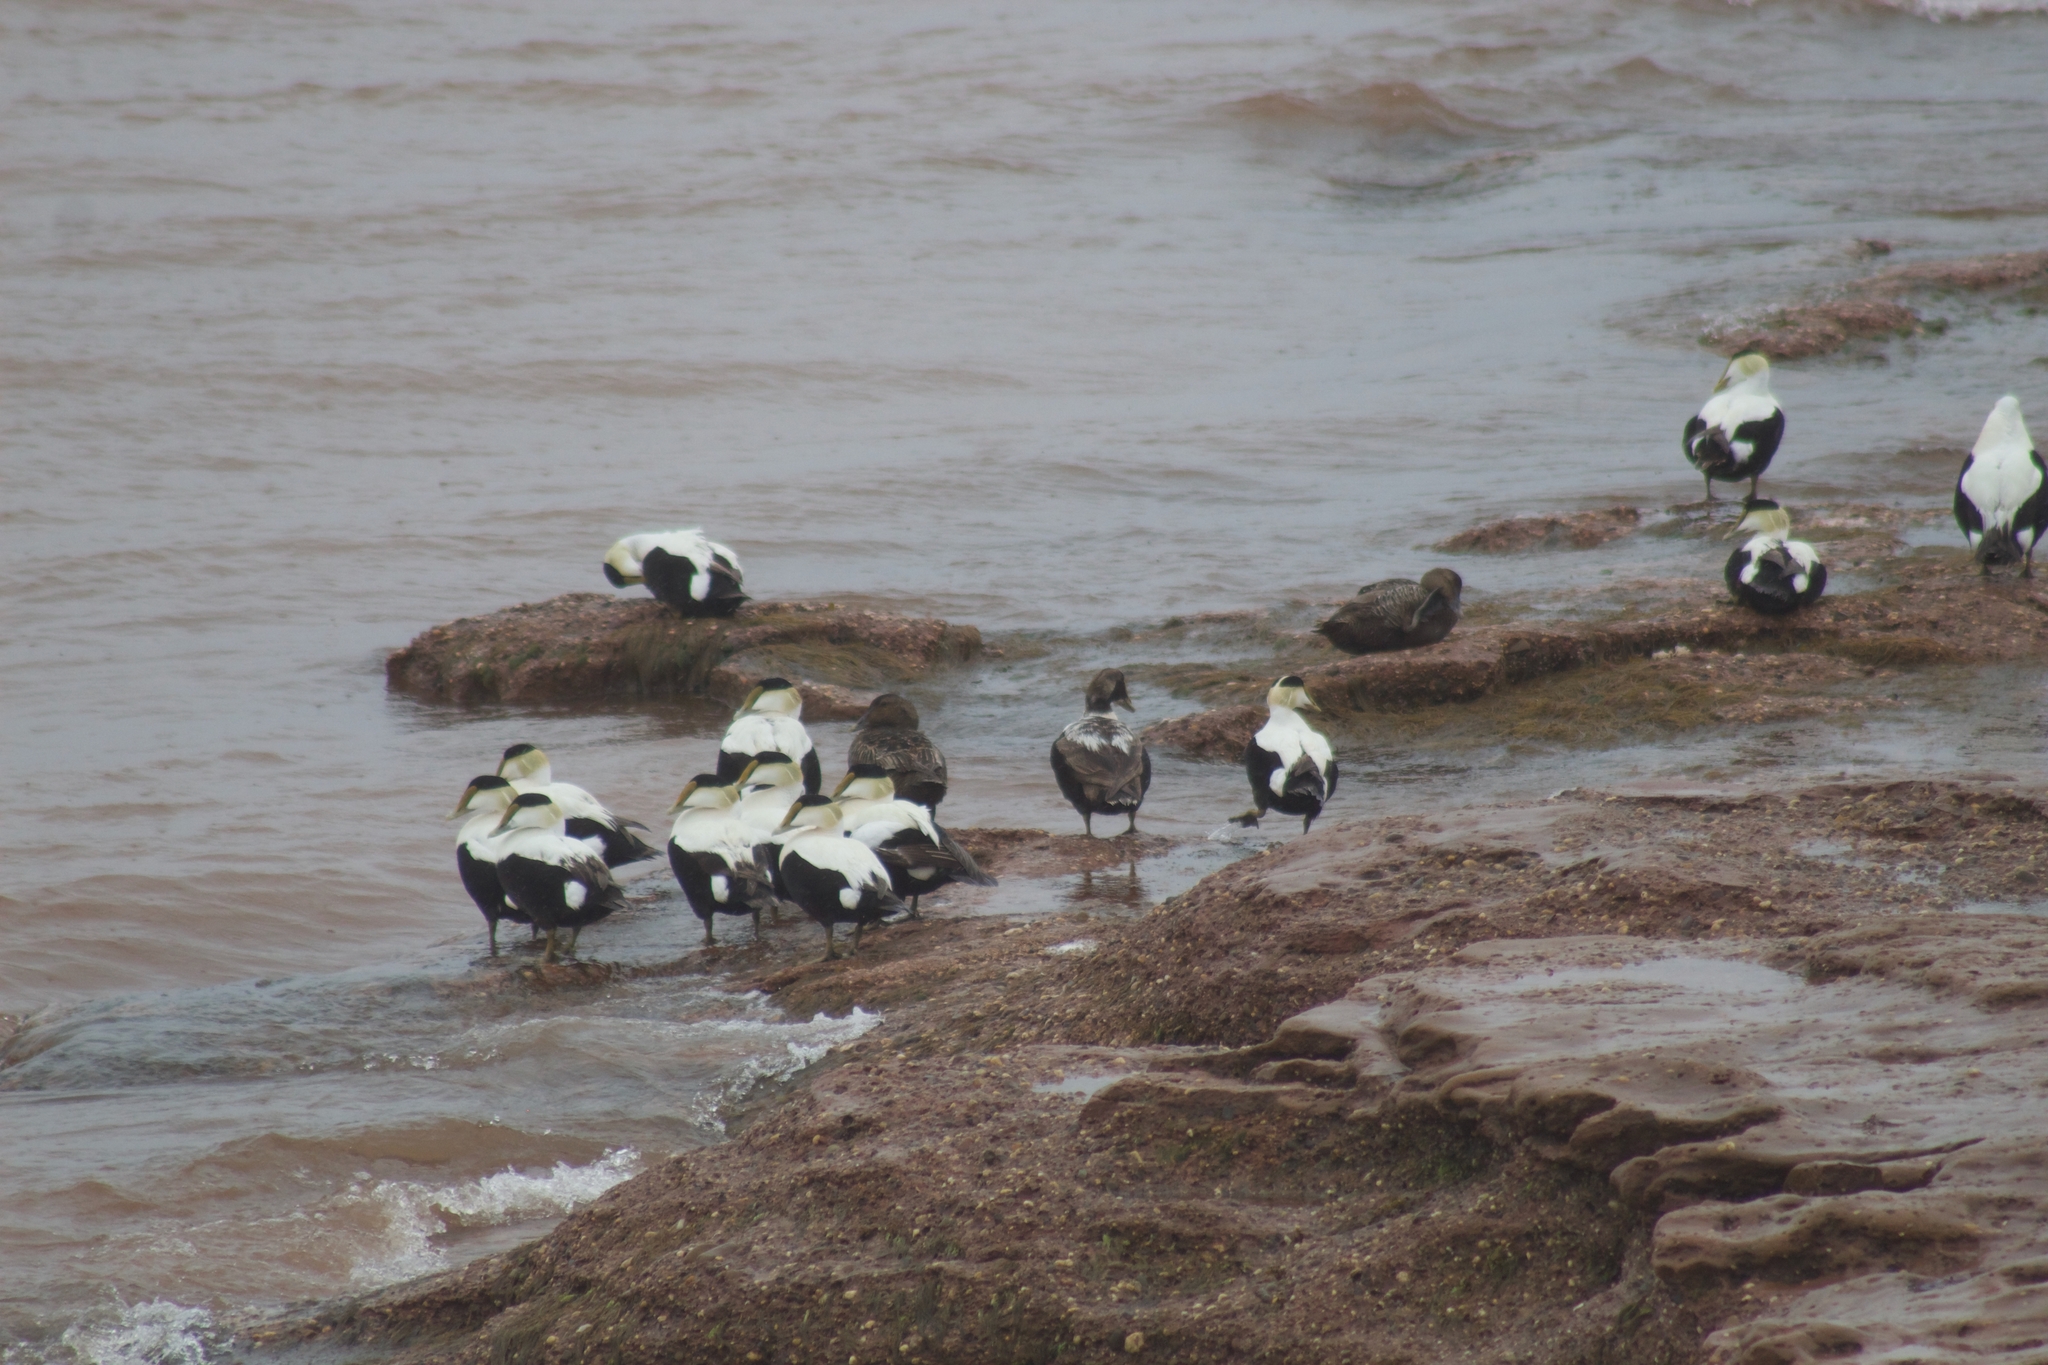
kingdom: Animalia
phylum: Chordata
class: Aves
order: Anseriformes
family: Anatidae
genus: Somateria
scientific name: Somateria mollissima
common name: Common eider
